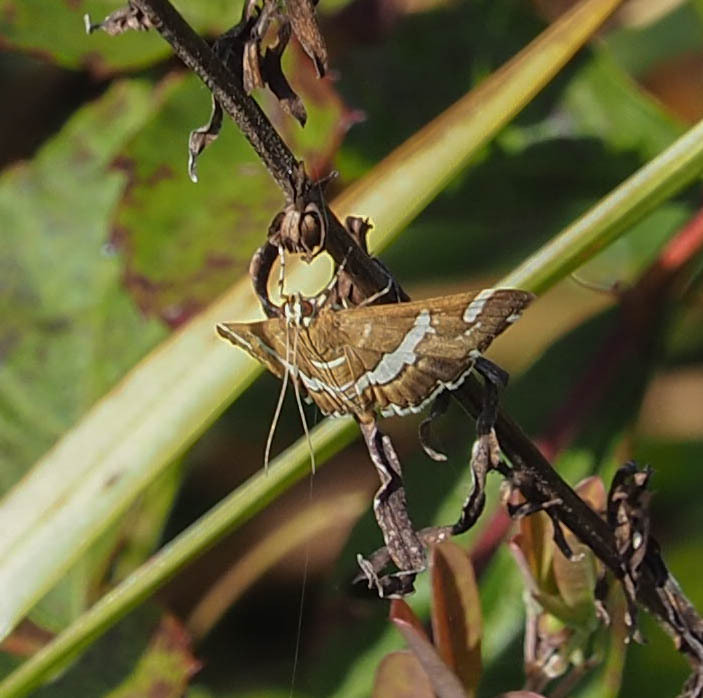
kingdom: Animalia
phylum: Arthropoda
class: Insecta
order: Lepidoptera
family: Crambidae
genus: Spoladea
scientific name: Spoladea recurvalis
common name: Beet webworm moth
